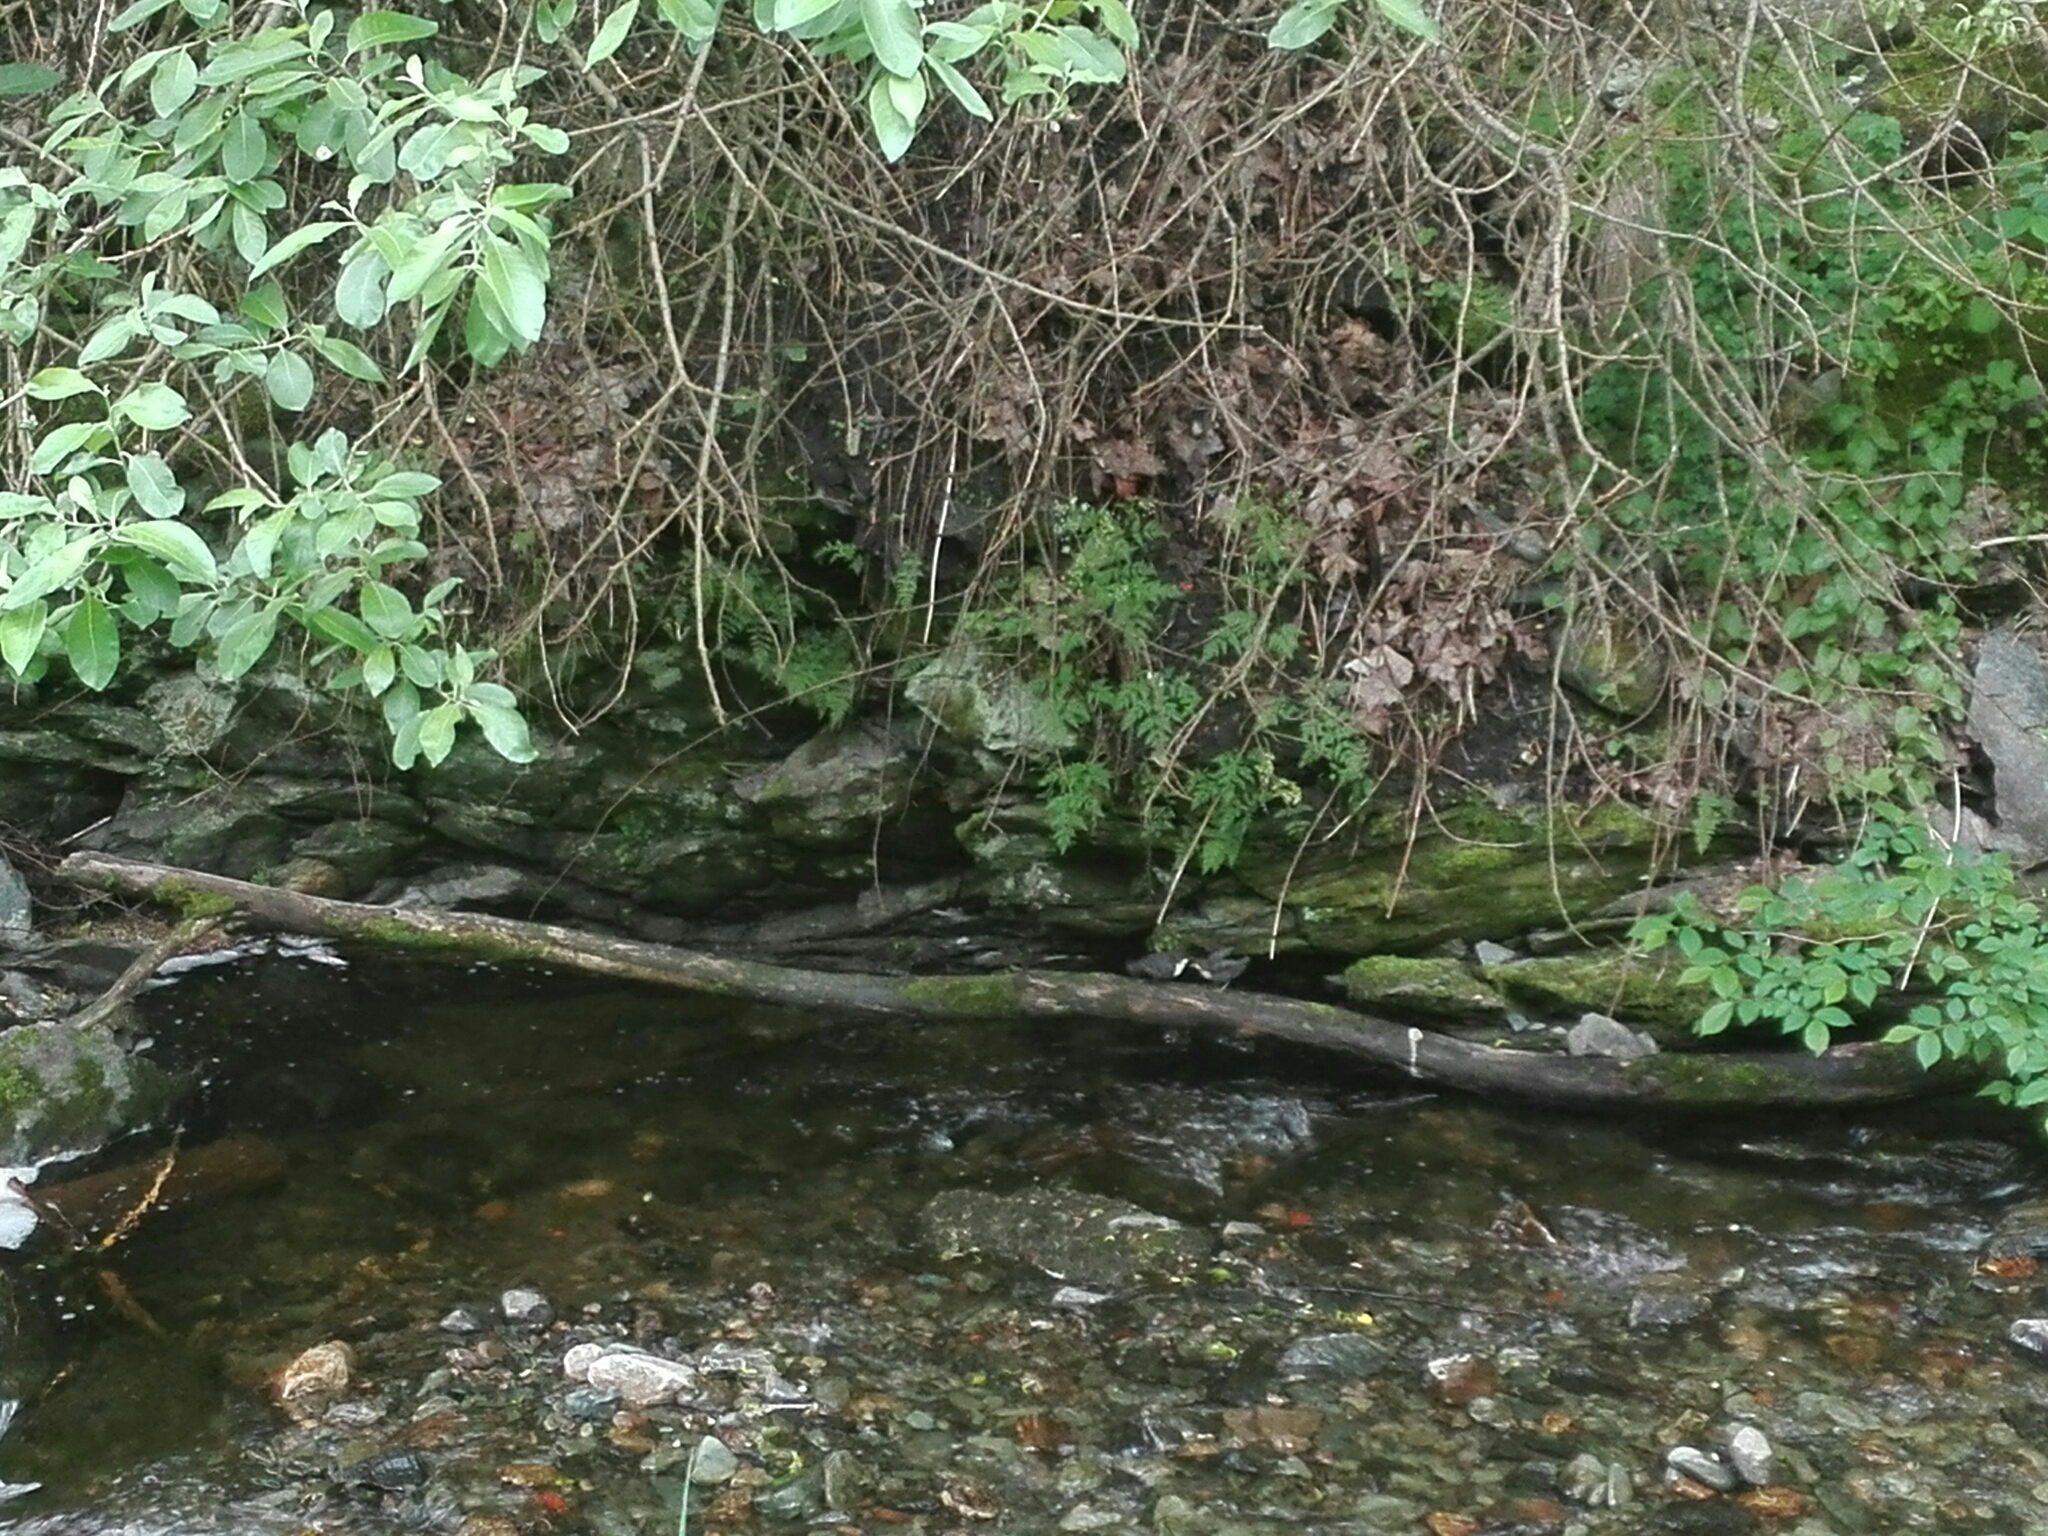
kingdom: Animalia
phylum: Chordata
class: Aves
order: Passeriformes
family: Cinclidae
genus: Cinclus
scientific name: Cinclus cinclus
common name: White-throated dipper
